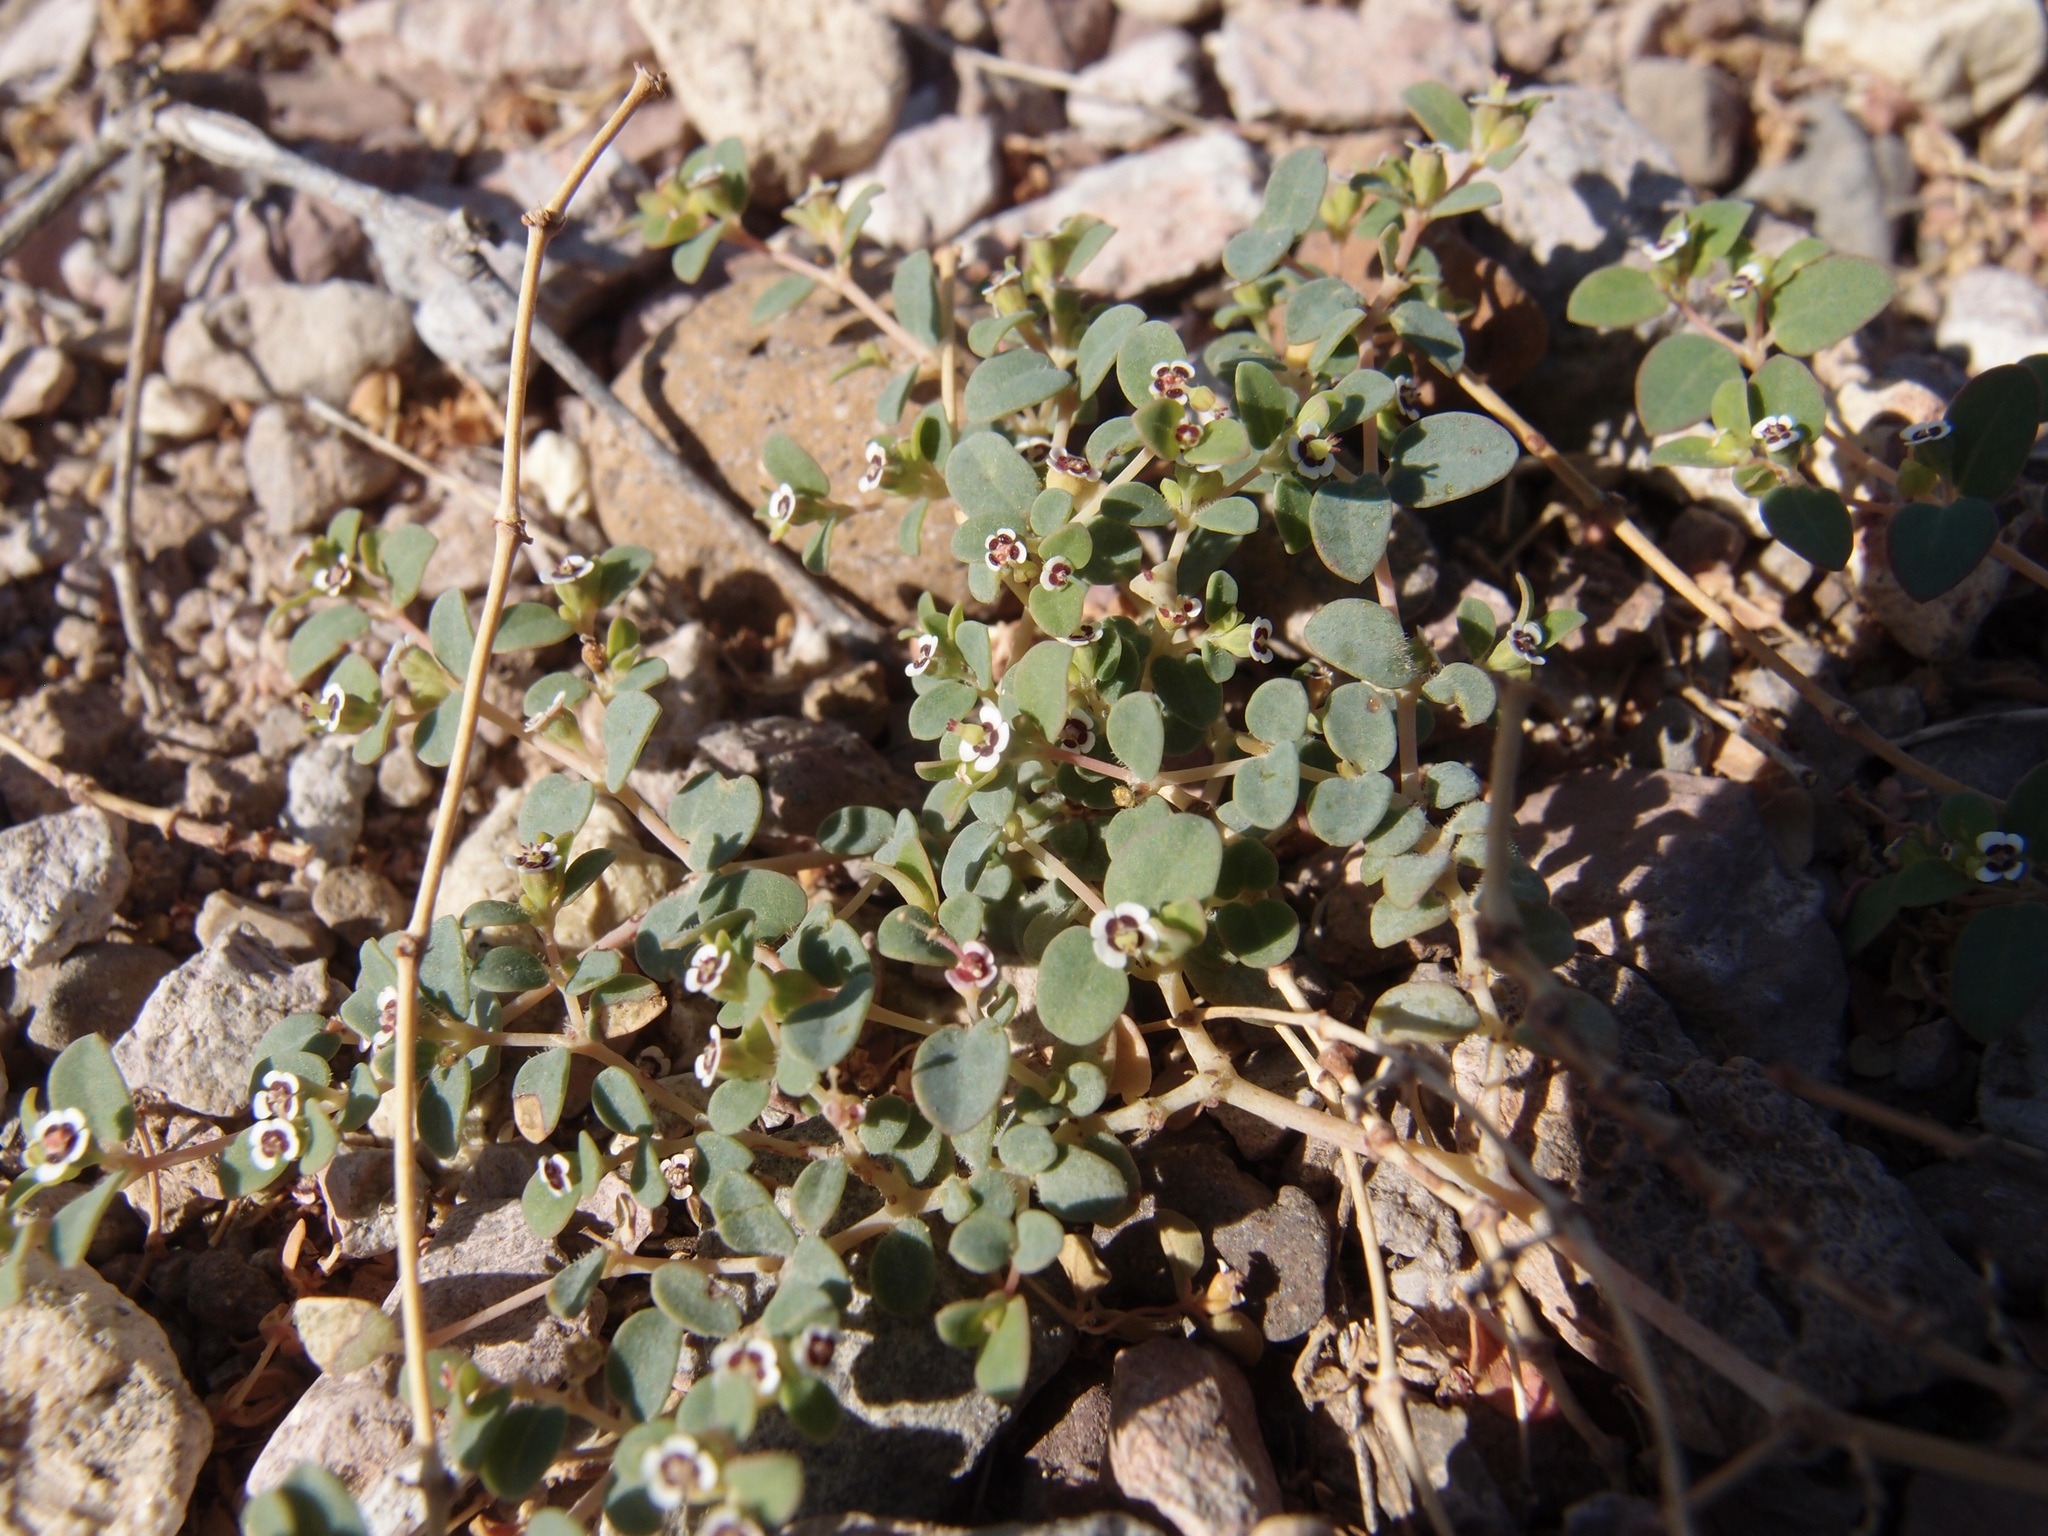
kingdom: Plantae
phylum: Tracheophyta
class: Magnoliopsida
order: Malpighiales
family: Euphorbiaceae
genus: Euphorbia
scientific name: Euphorbia polycarpa
